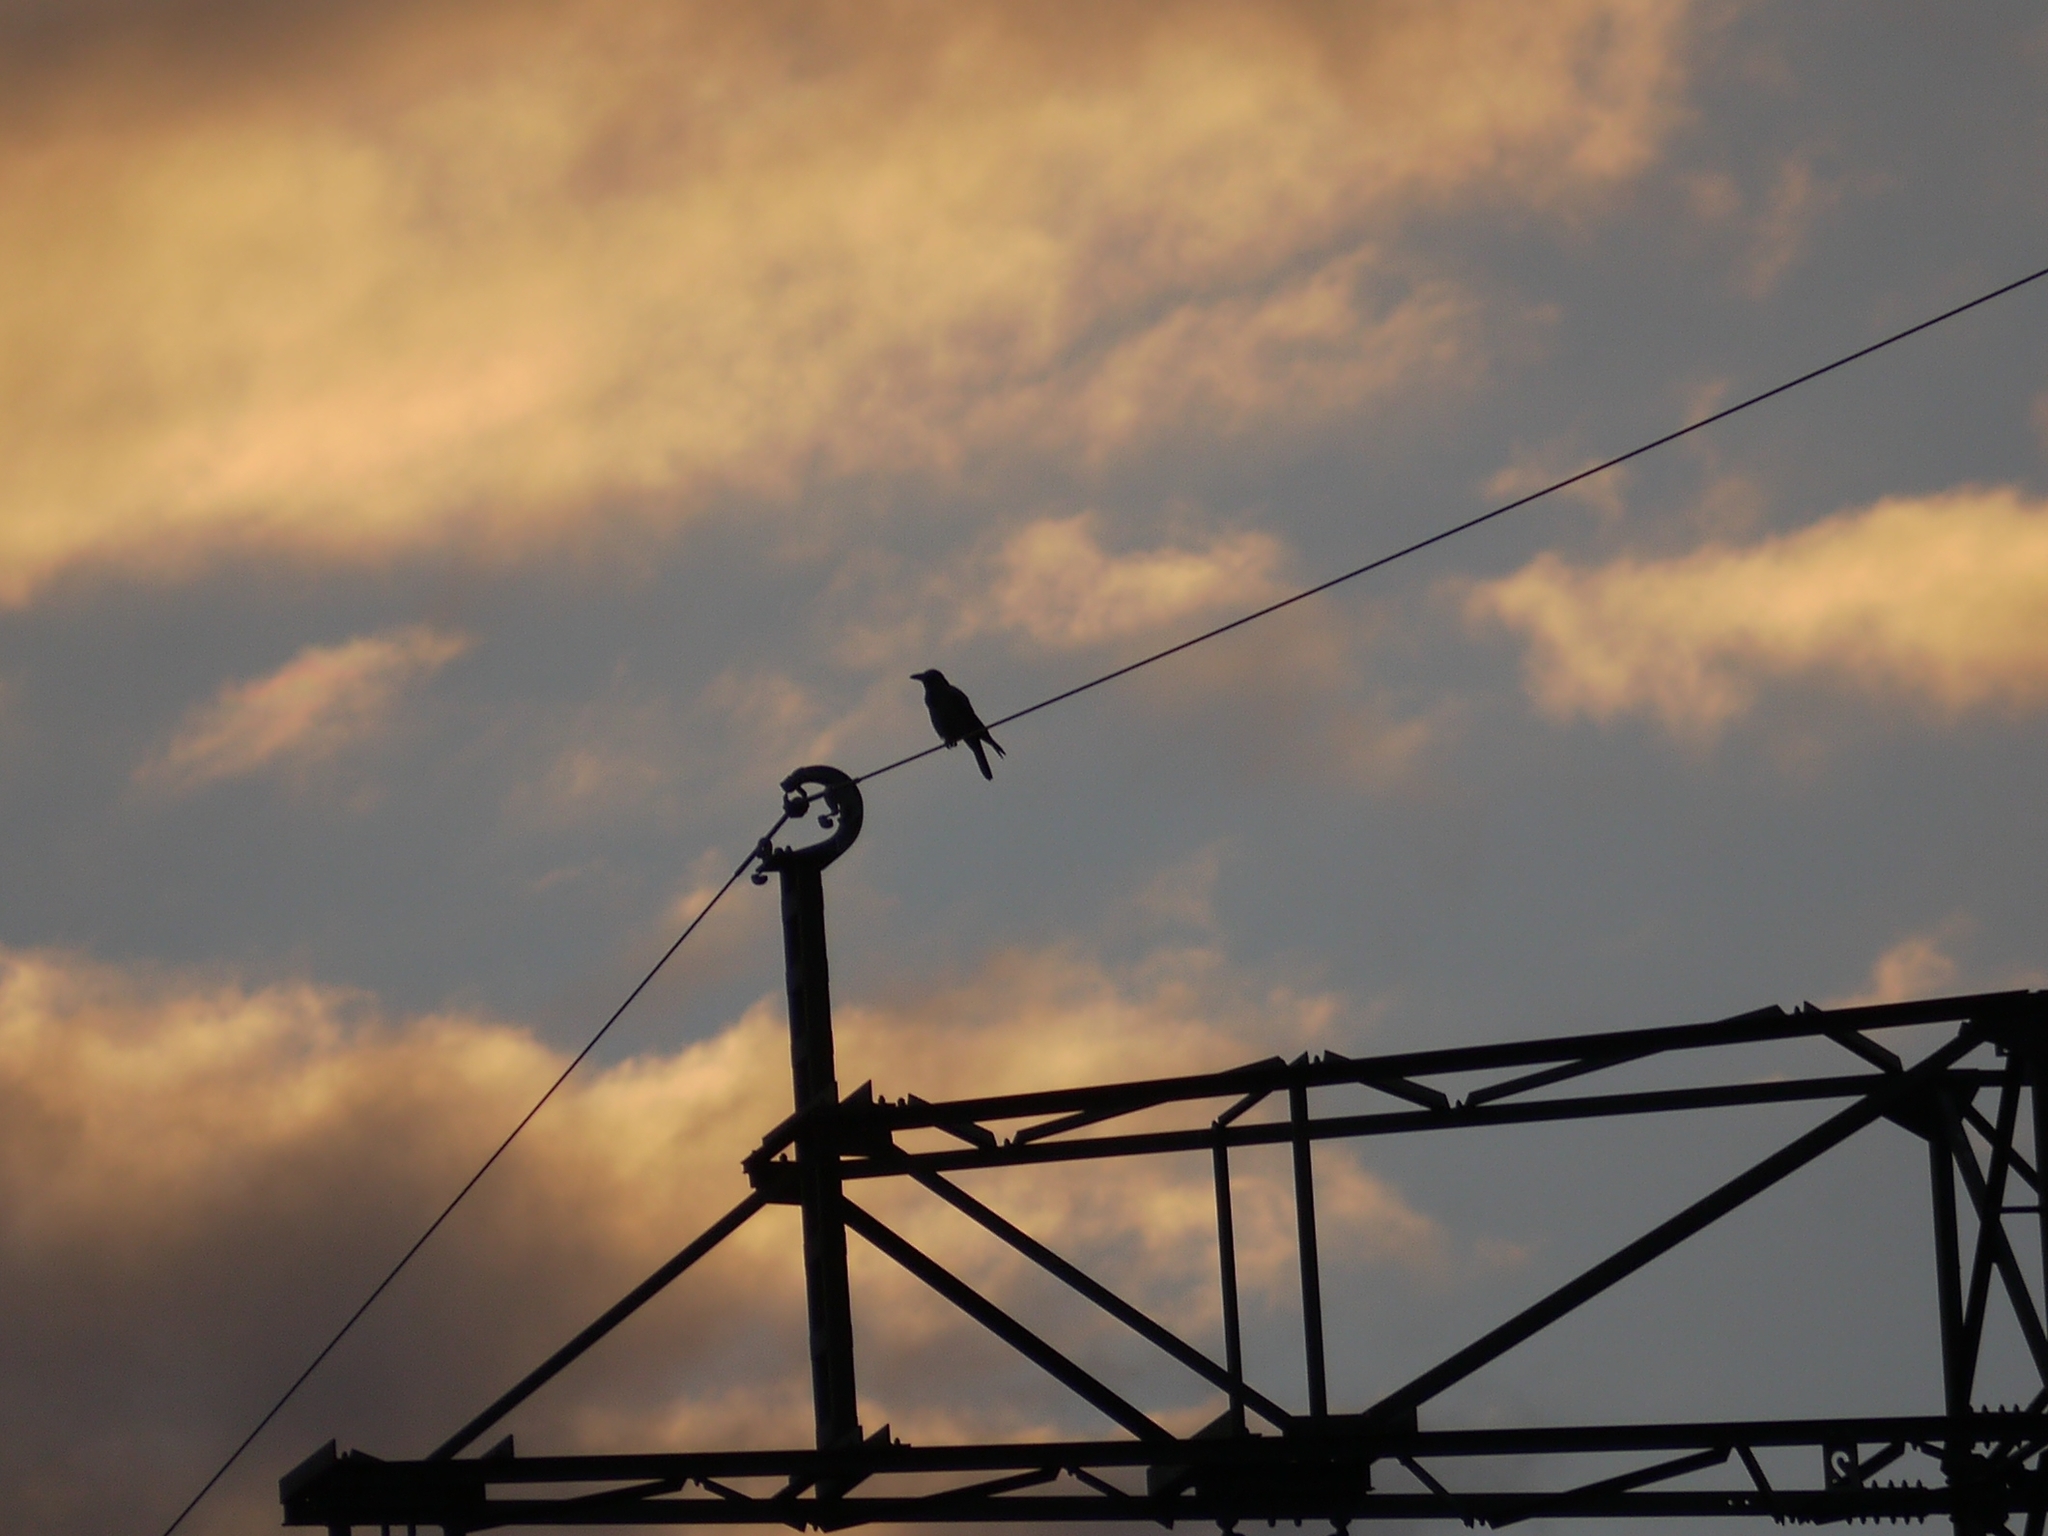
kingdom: Animalia
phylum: Chordata
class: Aves
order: Passeriformes
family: Corvidae
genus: Corvus
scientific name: Corvus cornix
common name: Hooded crow
